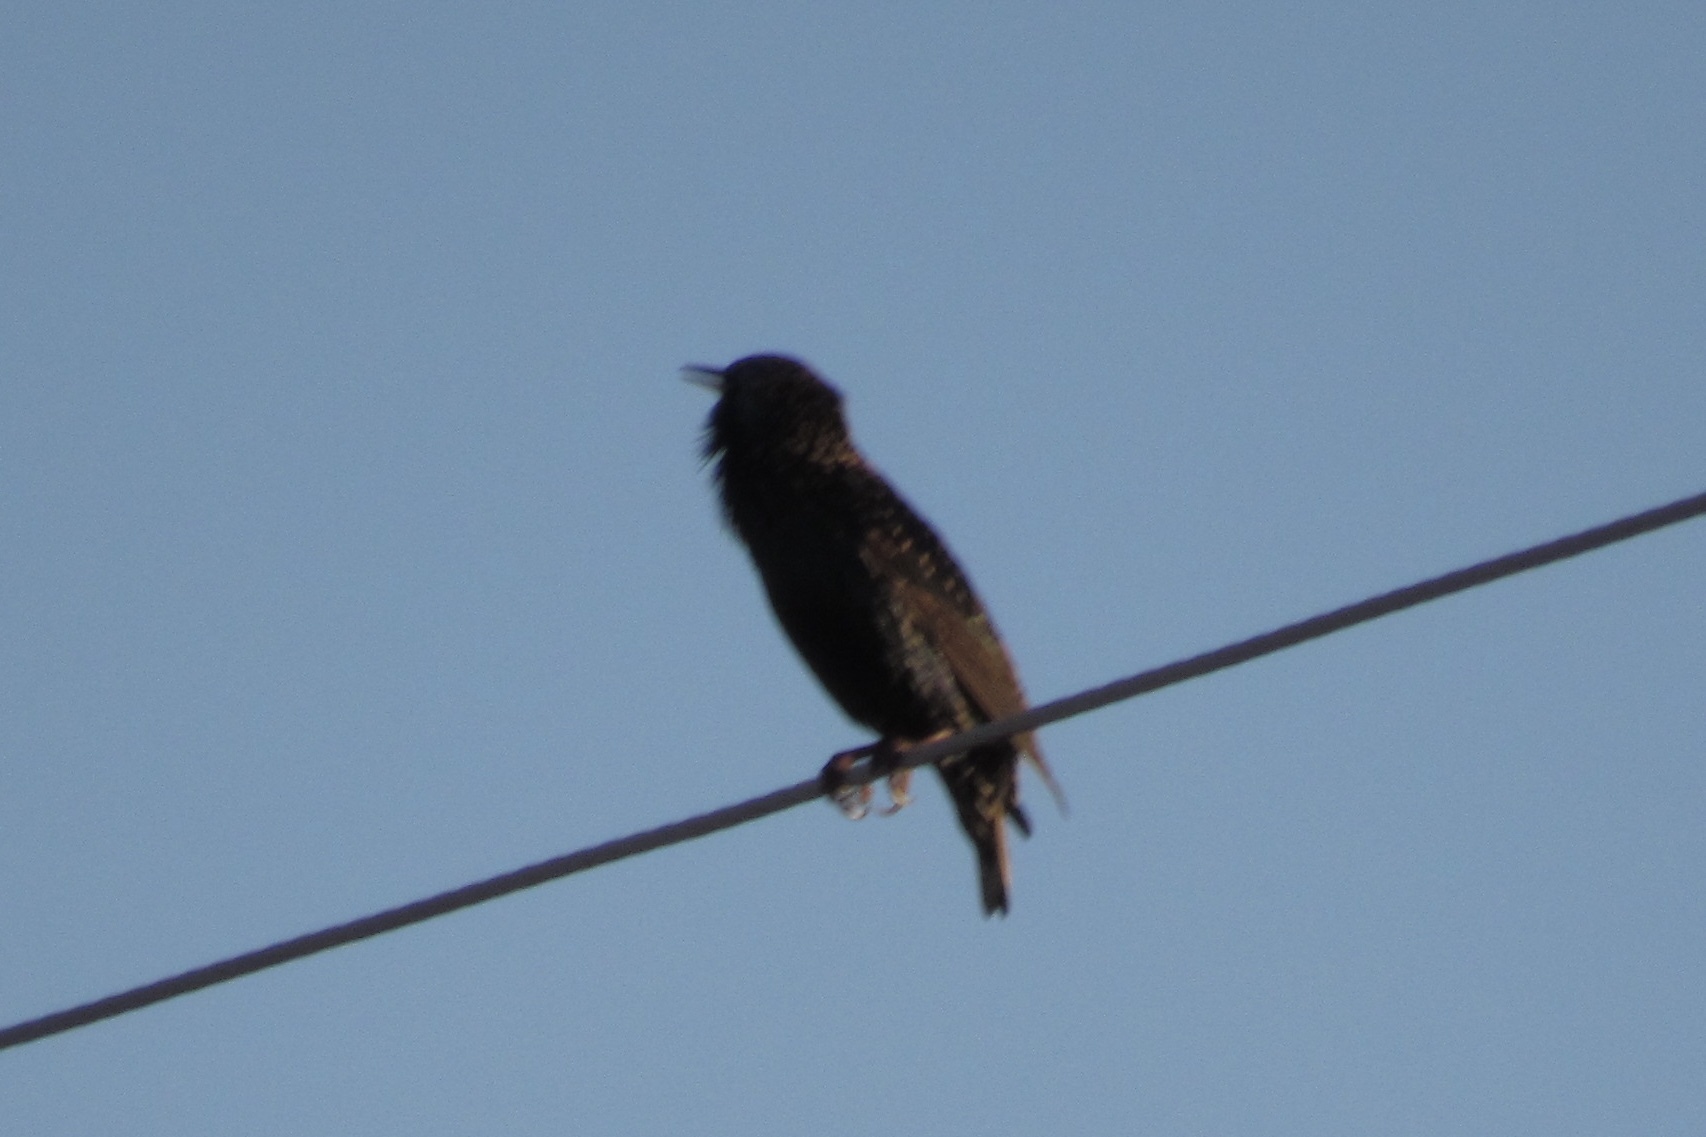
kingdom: Animalia
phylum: Chordata
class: Aves
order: Passeriformes
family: Sturnidae
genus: Sturnus
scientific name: Sturnus vulgaris
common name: Common starling
